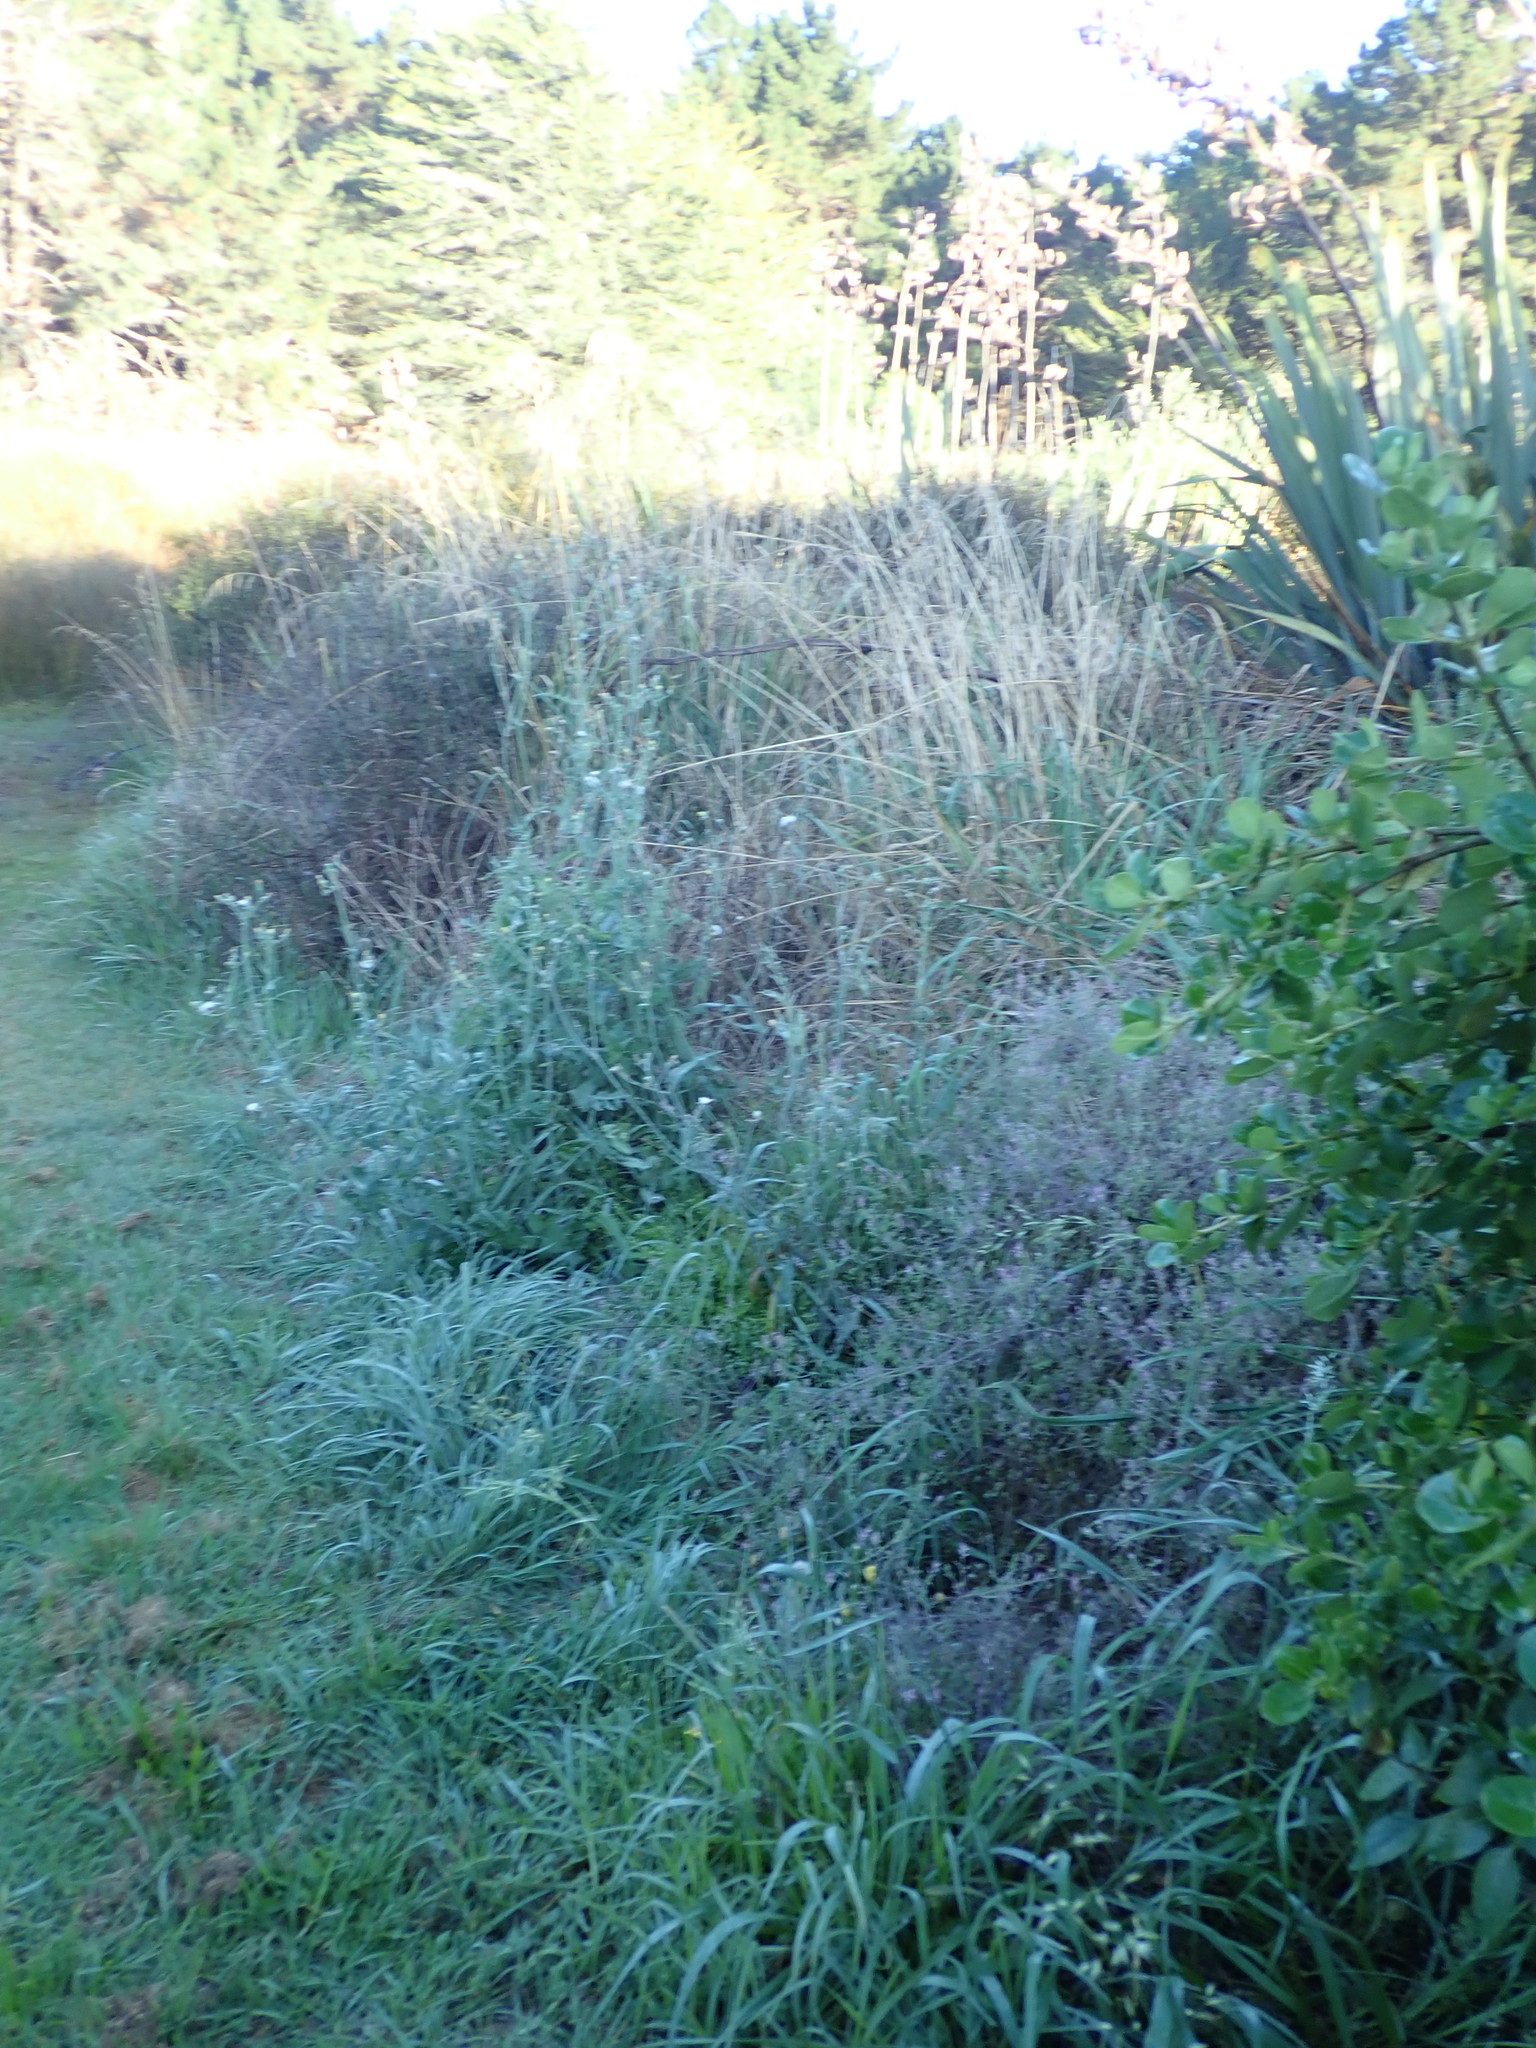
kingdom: Plantae
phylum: Tracheophyta
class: Magnoliopsida
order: Asterales
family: Asteraceae
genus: Sonchus
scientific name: Sonchus asper
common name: Prickly sow-thistle
